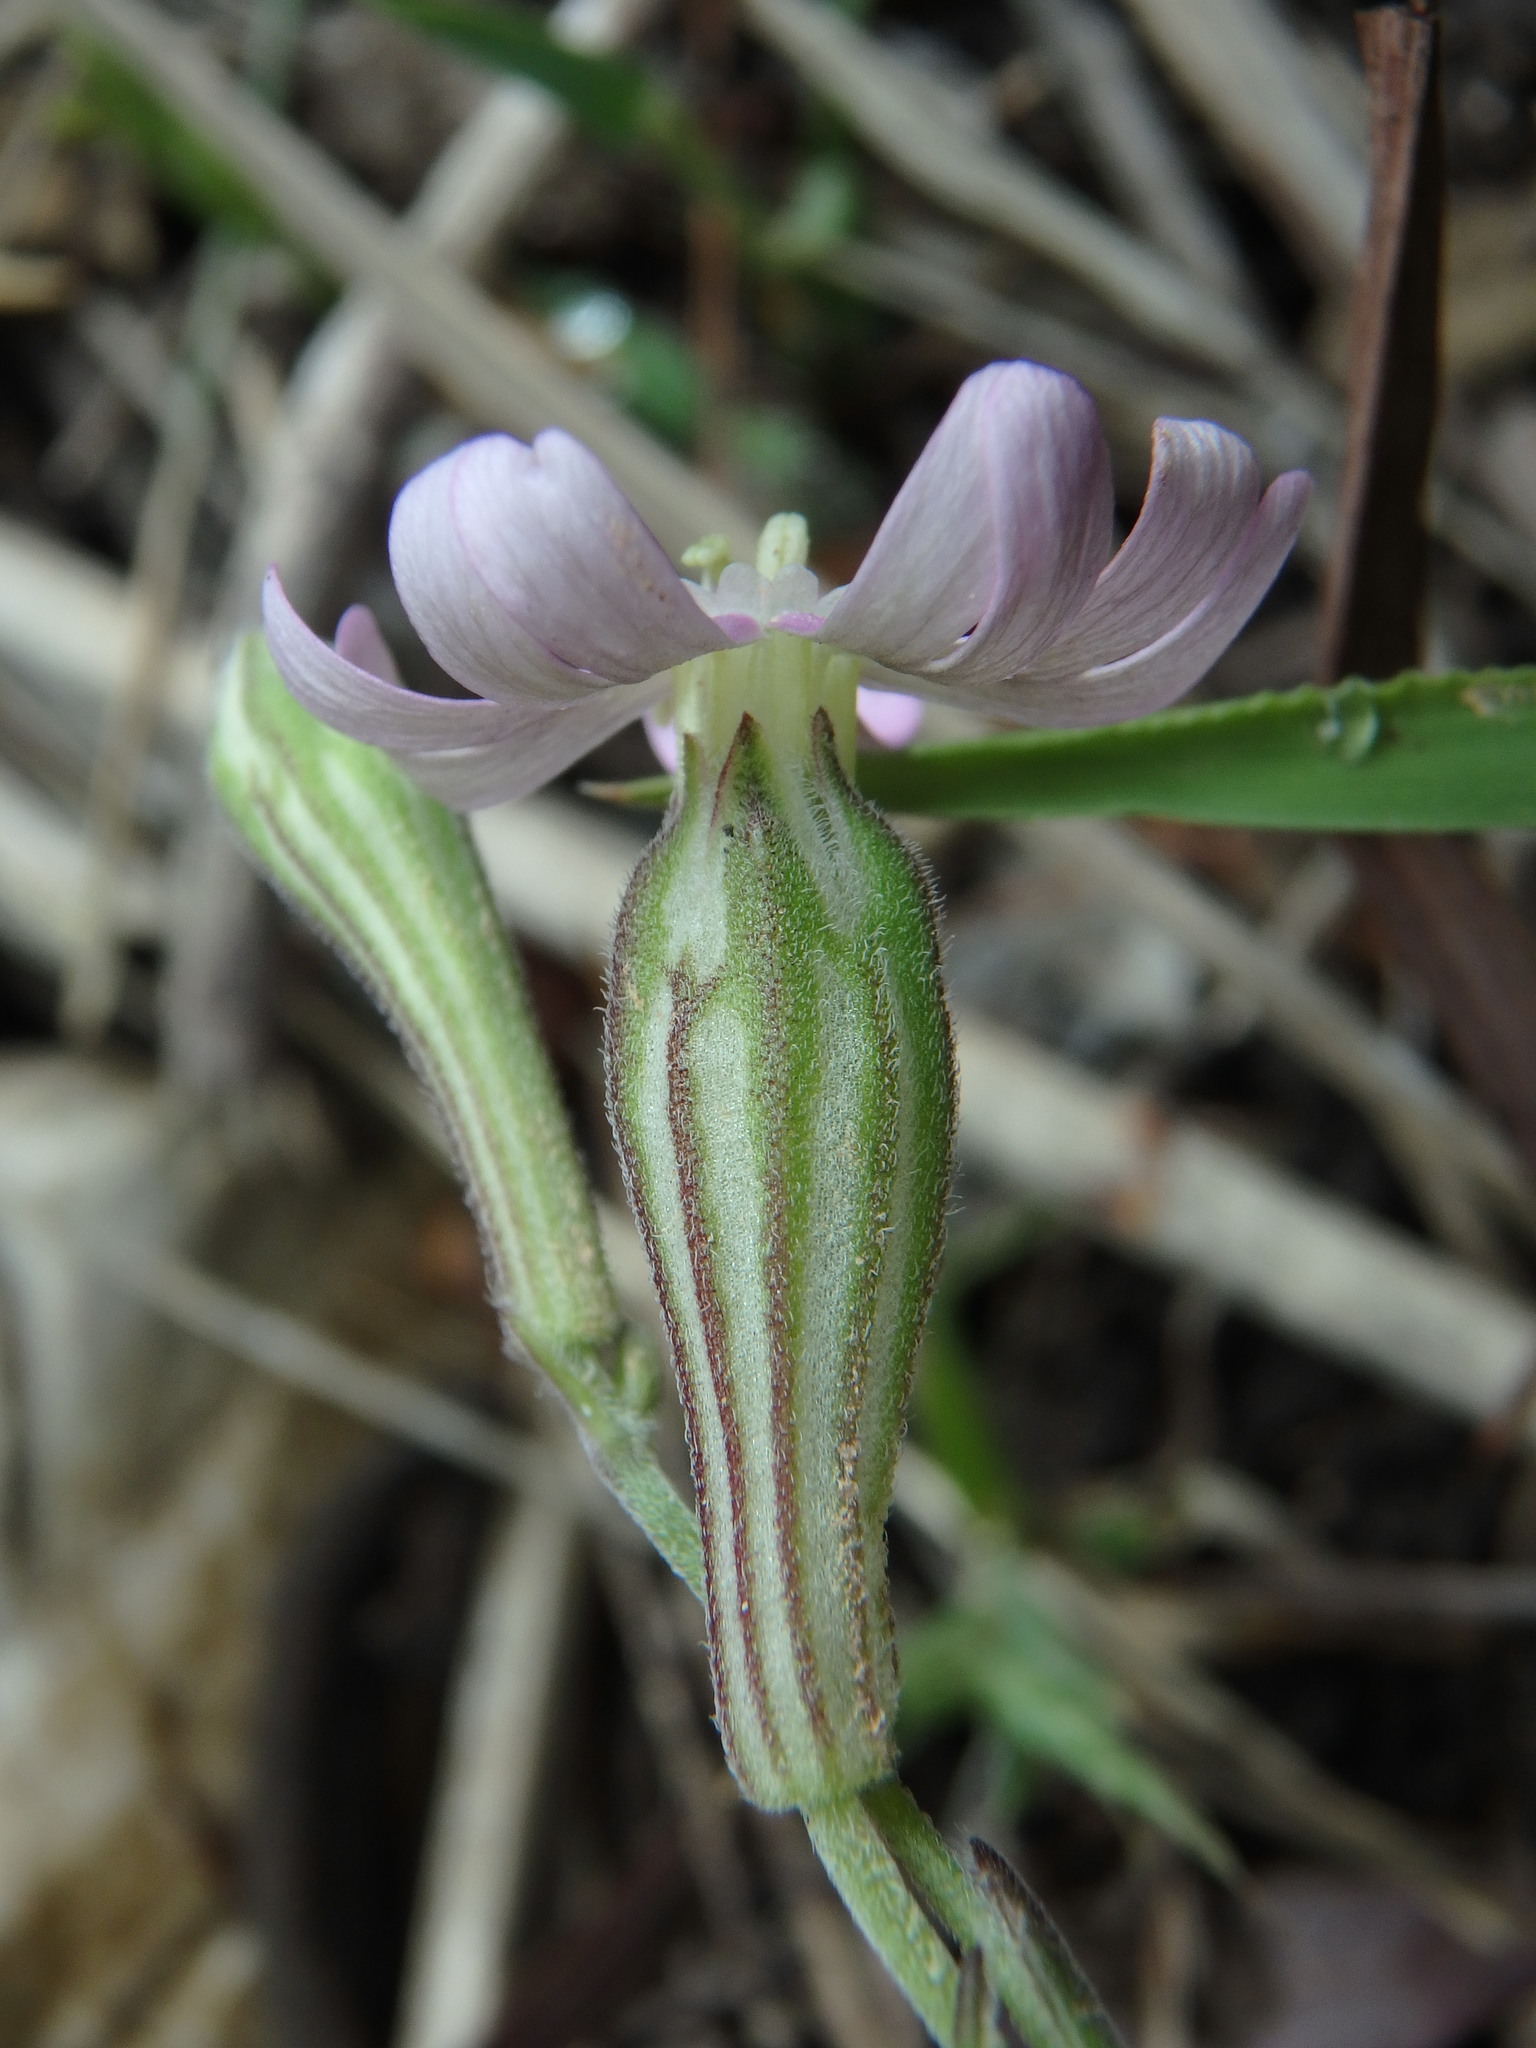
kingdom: Plantae
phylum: Tracheophyta
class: Magnoliopsida
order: Caryophyllales
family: Caryophyllaceae
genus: Silene
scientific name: Silene colorata
